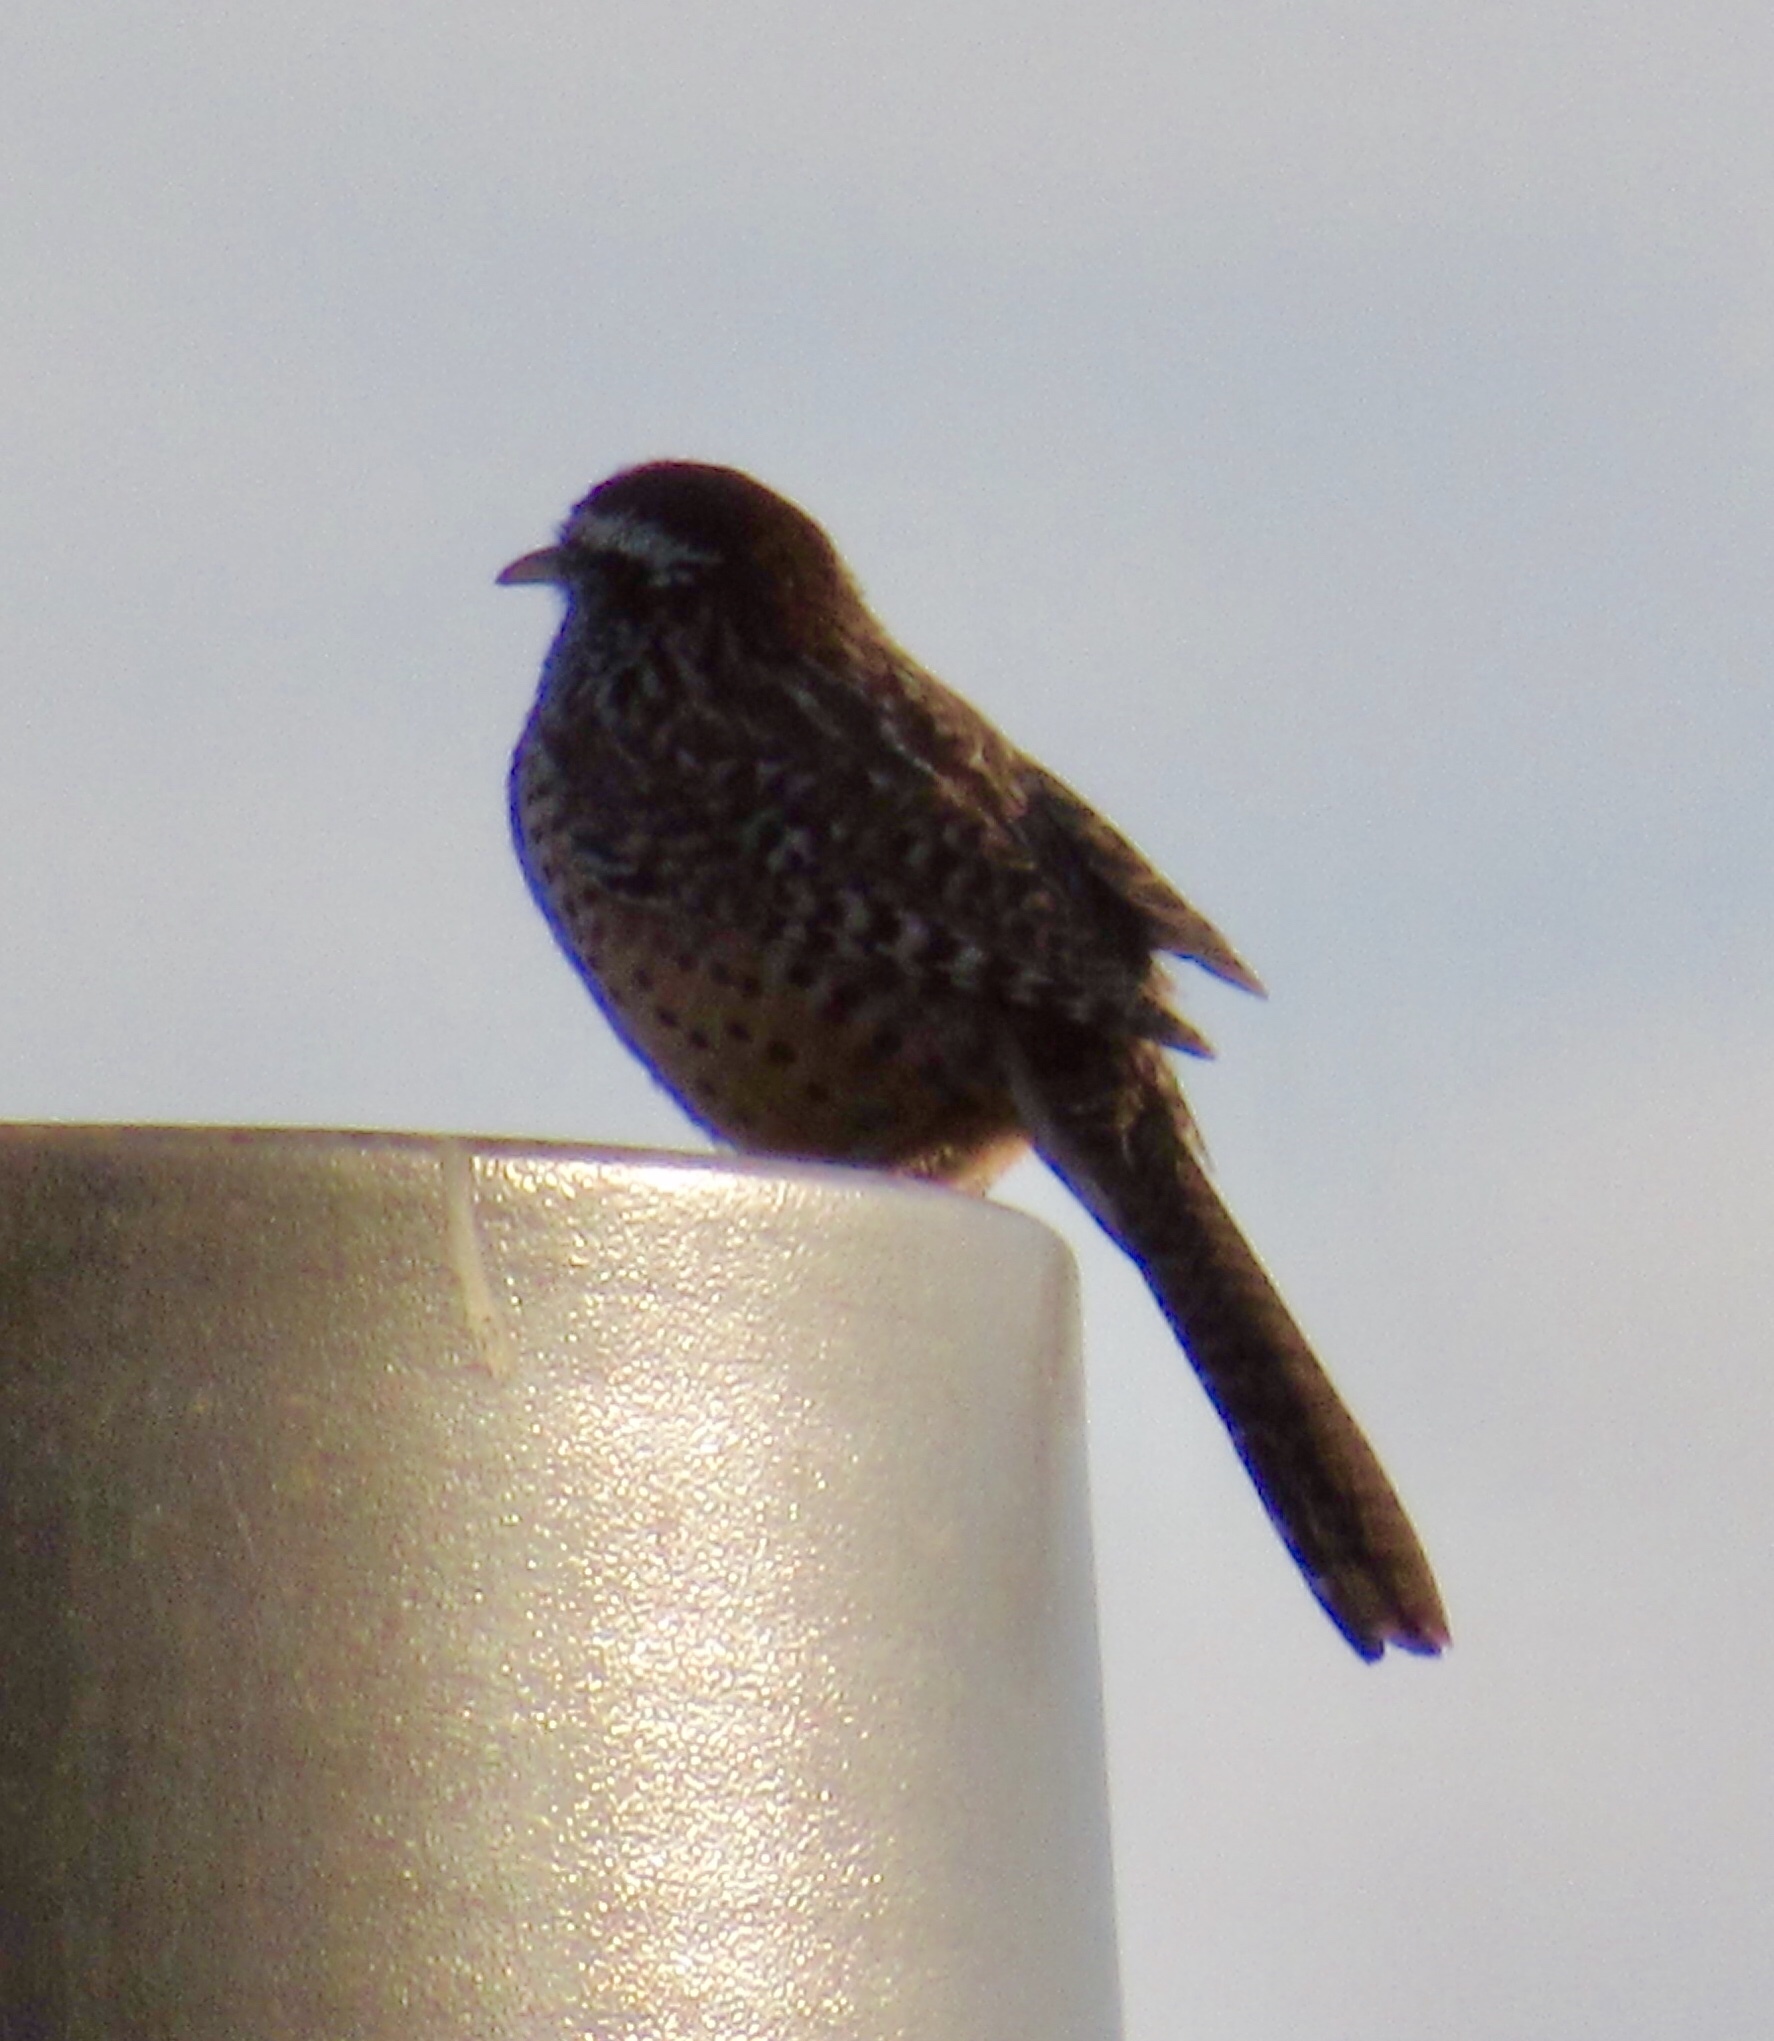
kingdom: Animalia
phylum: Chordata
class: Aves
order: Passeriformes
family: Troglodytidae
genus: Campylorhynchus
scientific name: Campylorhynchus brunneicapillus
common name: Cactus wren
